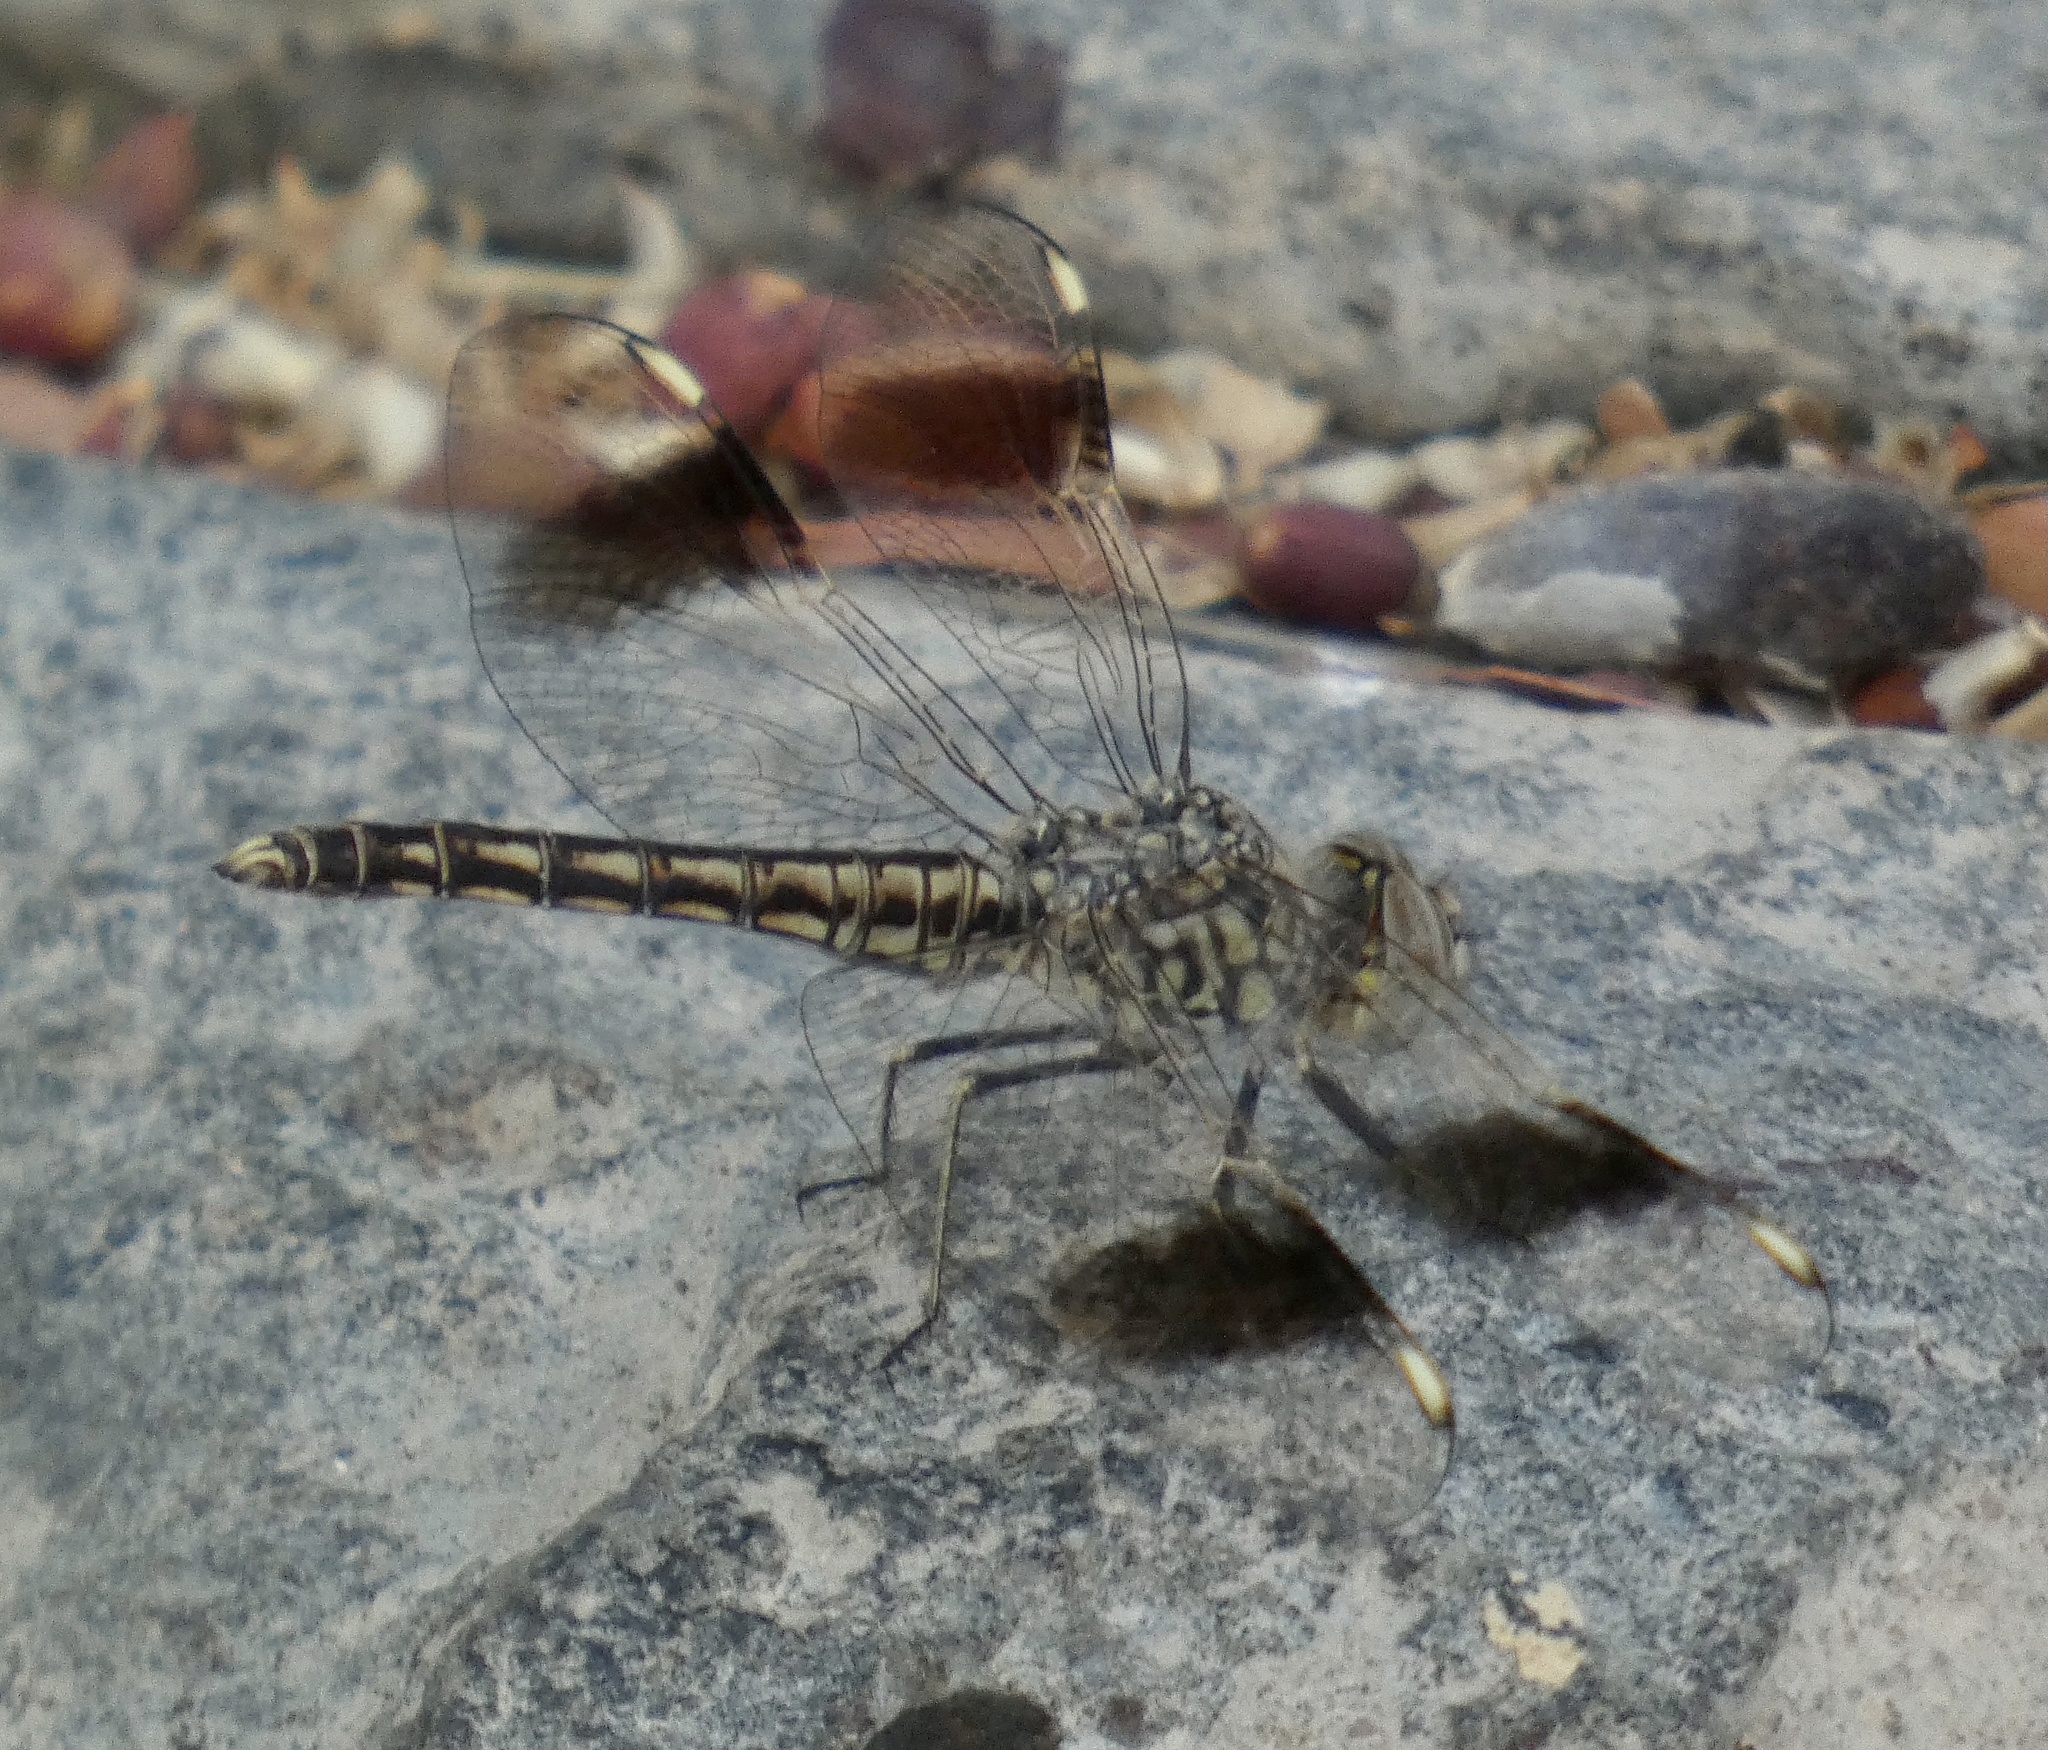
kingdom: Animalia
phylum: Arthropoda
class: Insecta
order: Odonata
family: Libellulidae
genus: Brachythemis
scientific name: Brachythemis impartita
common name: Banded groundling
